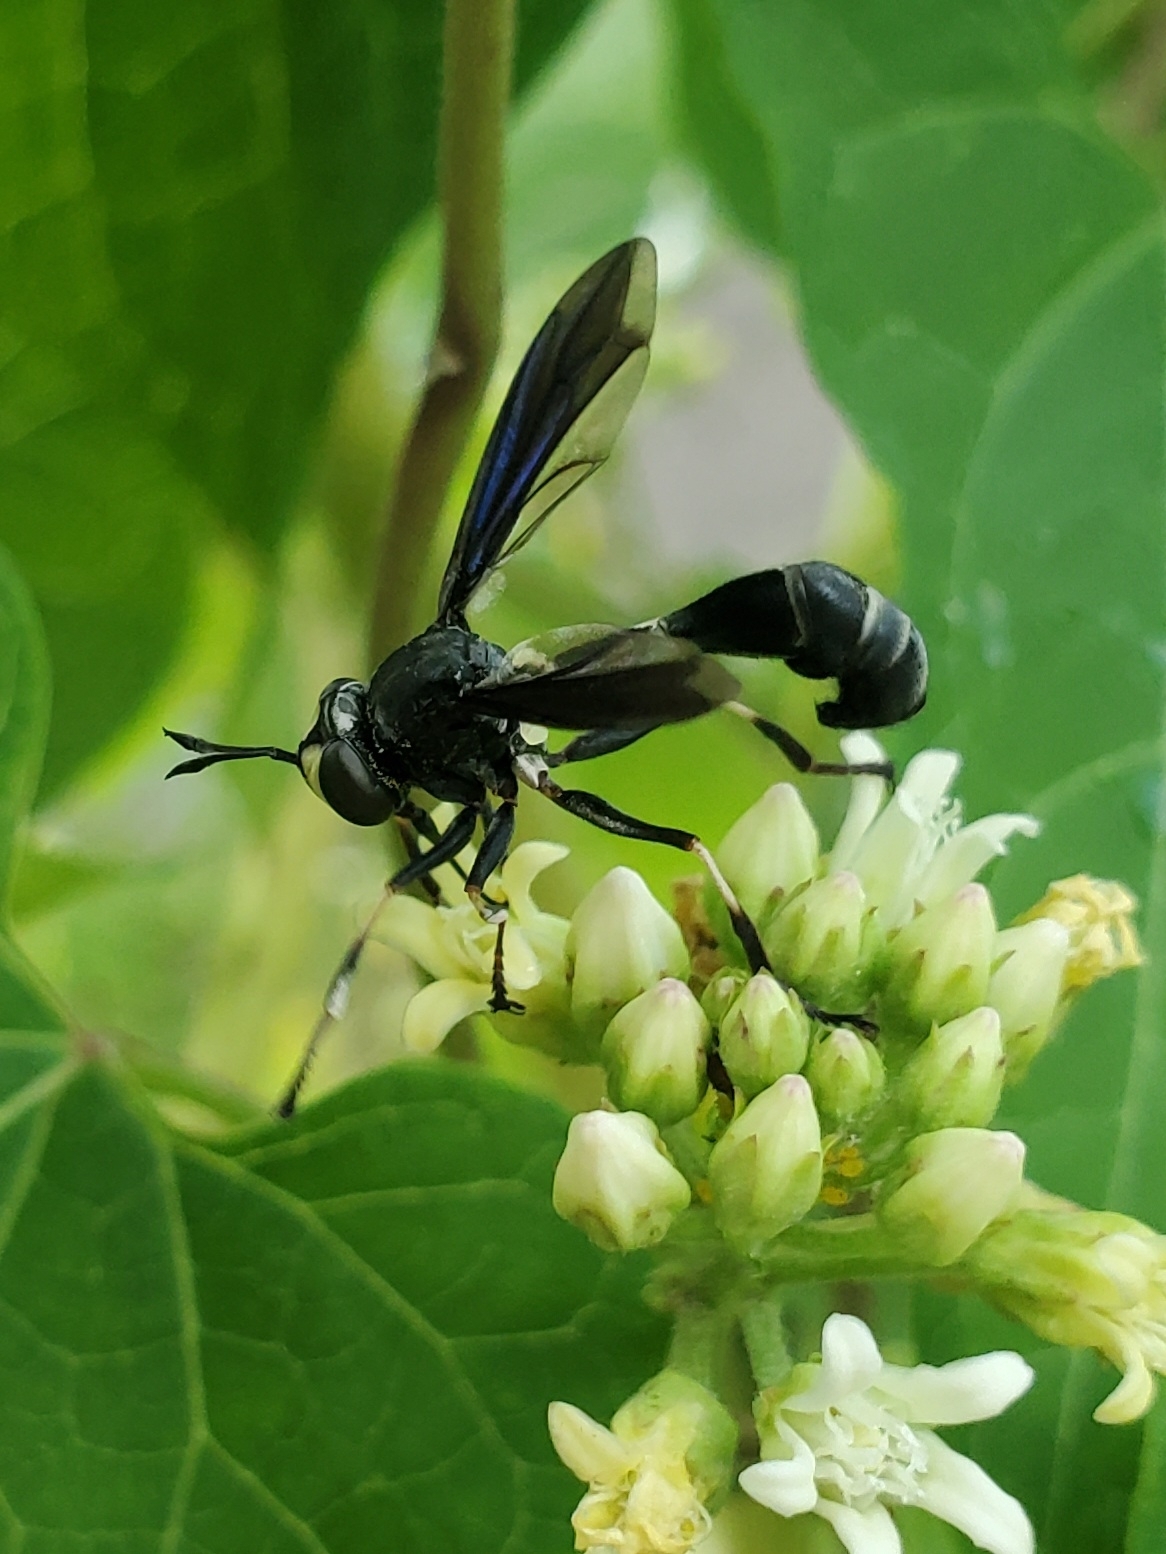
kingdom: Animalia
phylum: Arthropoda
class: Insecta
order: Diptera
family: Conopidae
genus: Physocephala
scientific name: Physocephala tibialis
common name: Common eastern physocephala
